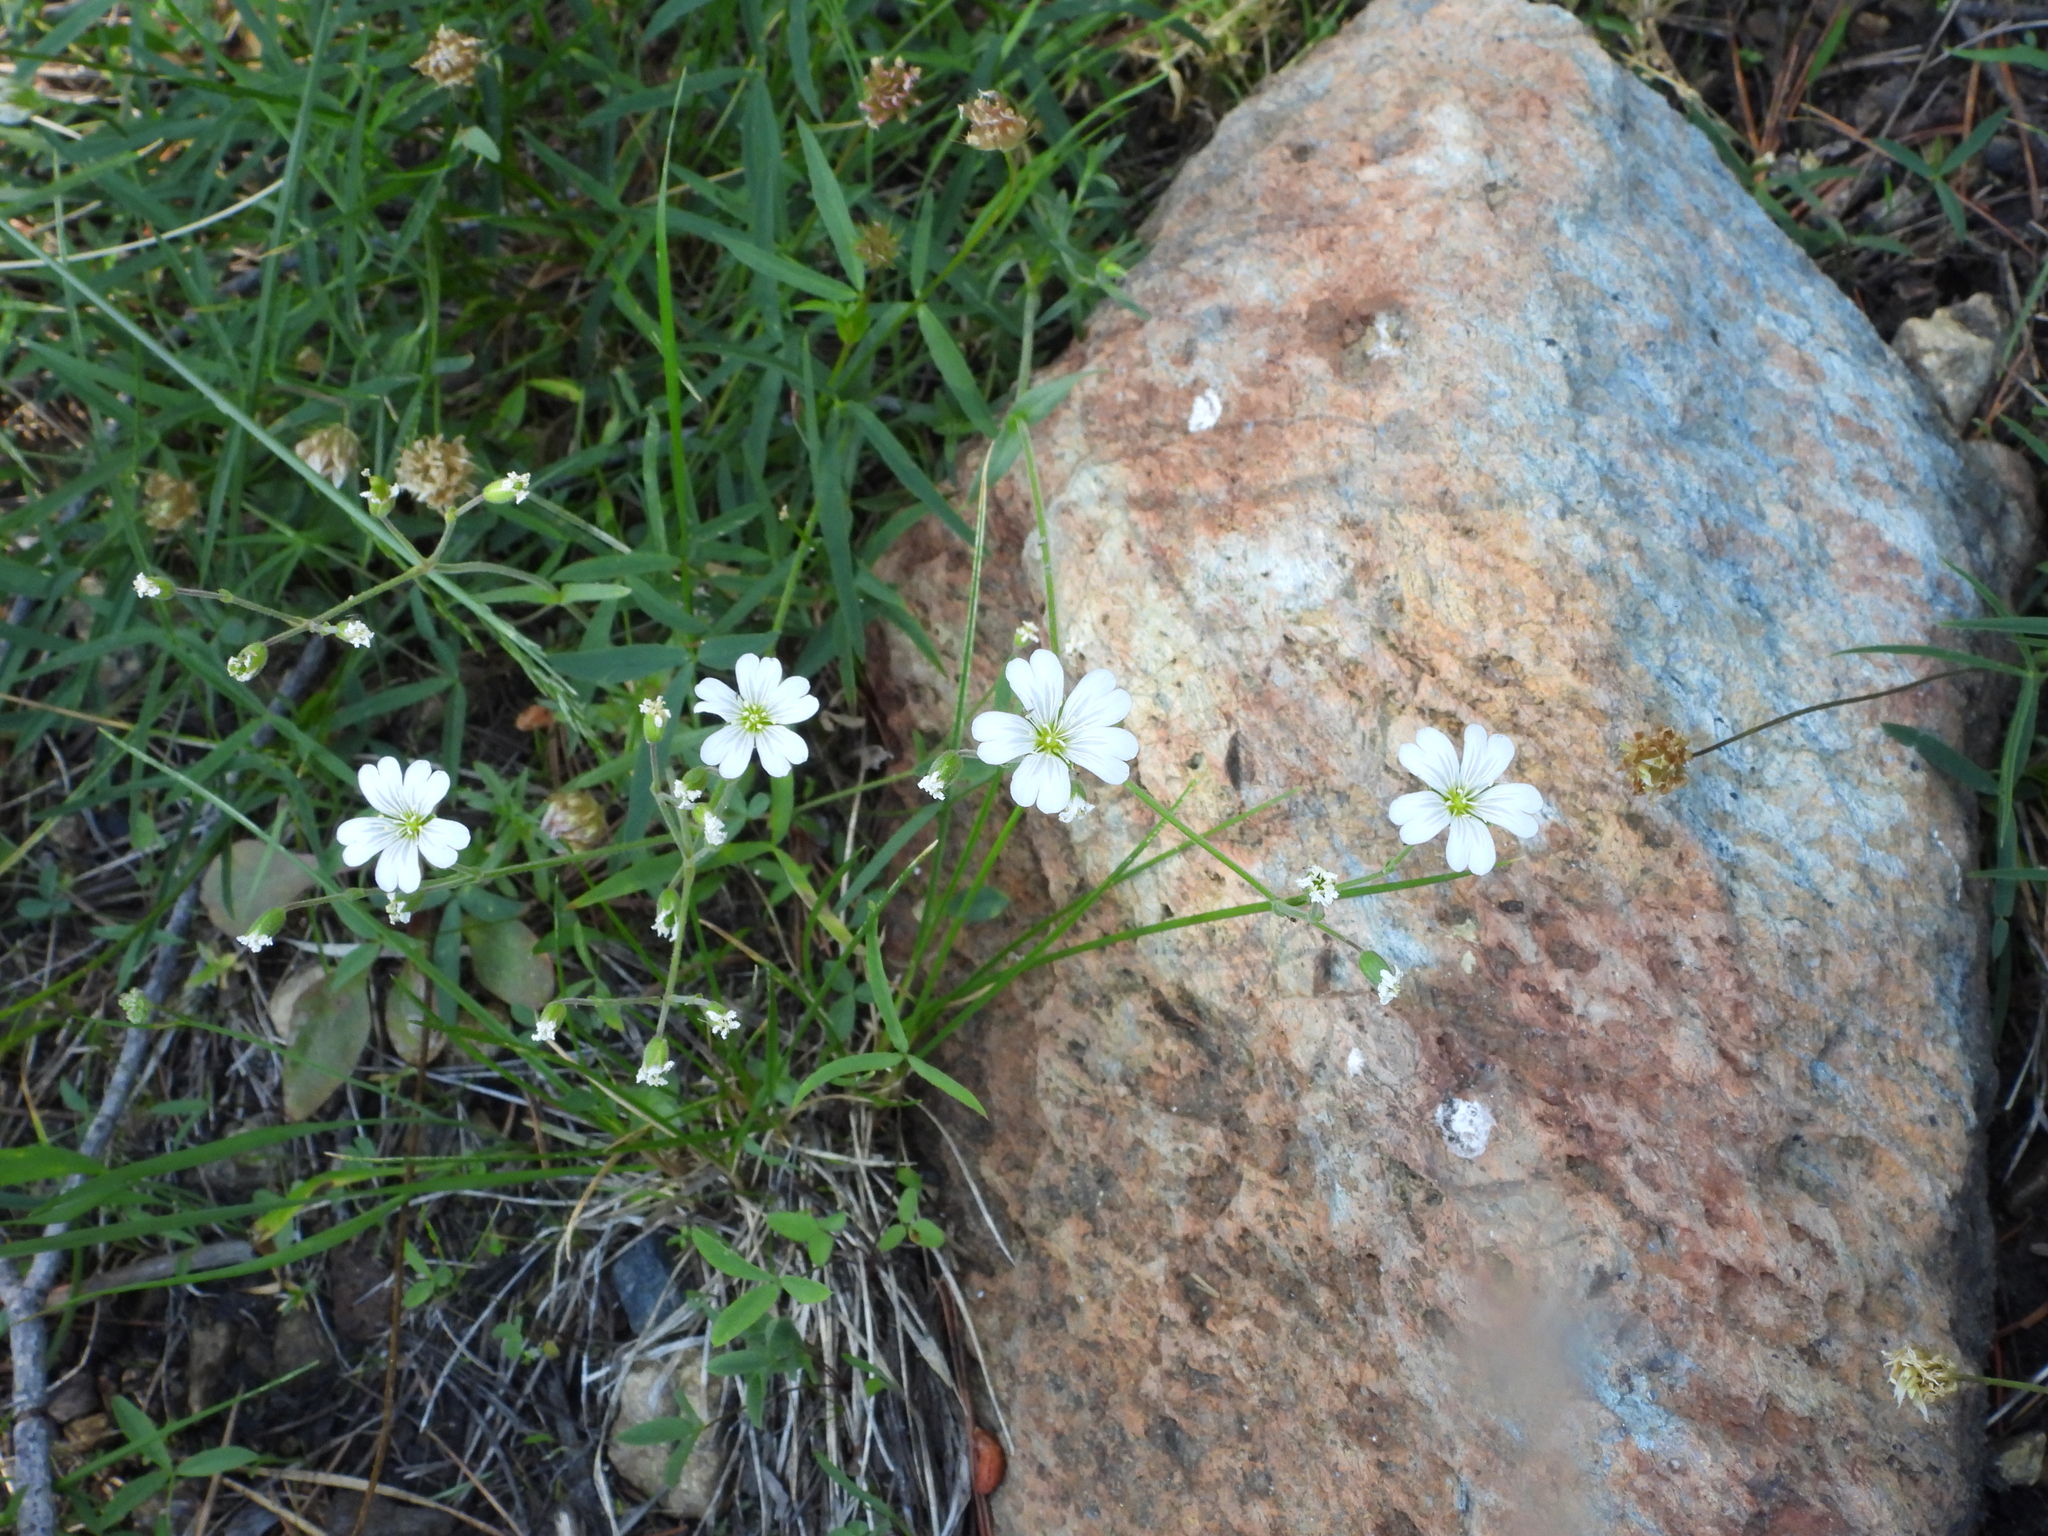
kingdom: Plantae
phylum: Tracheophyta
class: Magnoliopsida
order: Caryophyllales
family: Caryophyllaceae
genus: Cerastium
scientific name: Cerastium arvense
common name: Field mouse-ear
